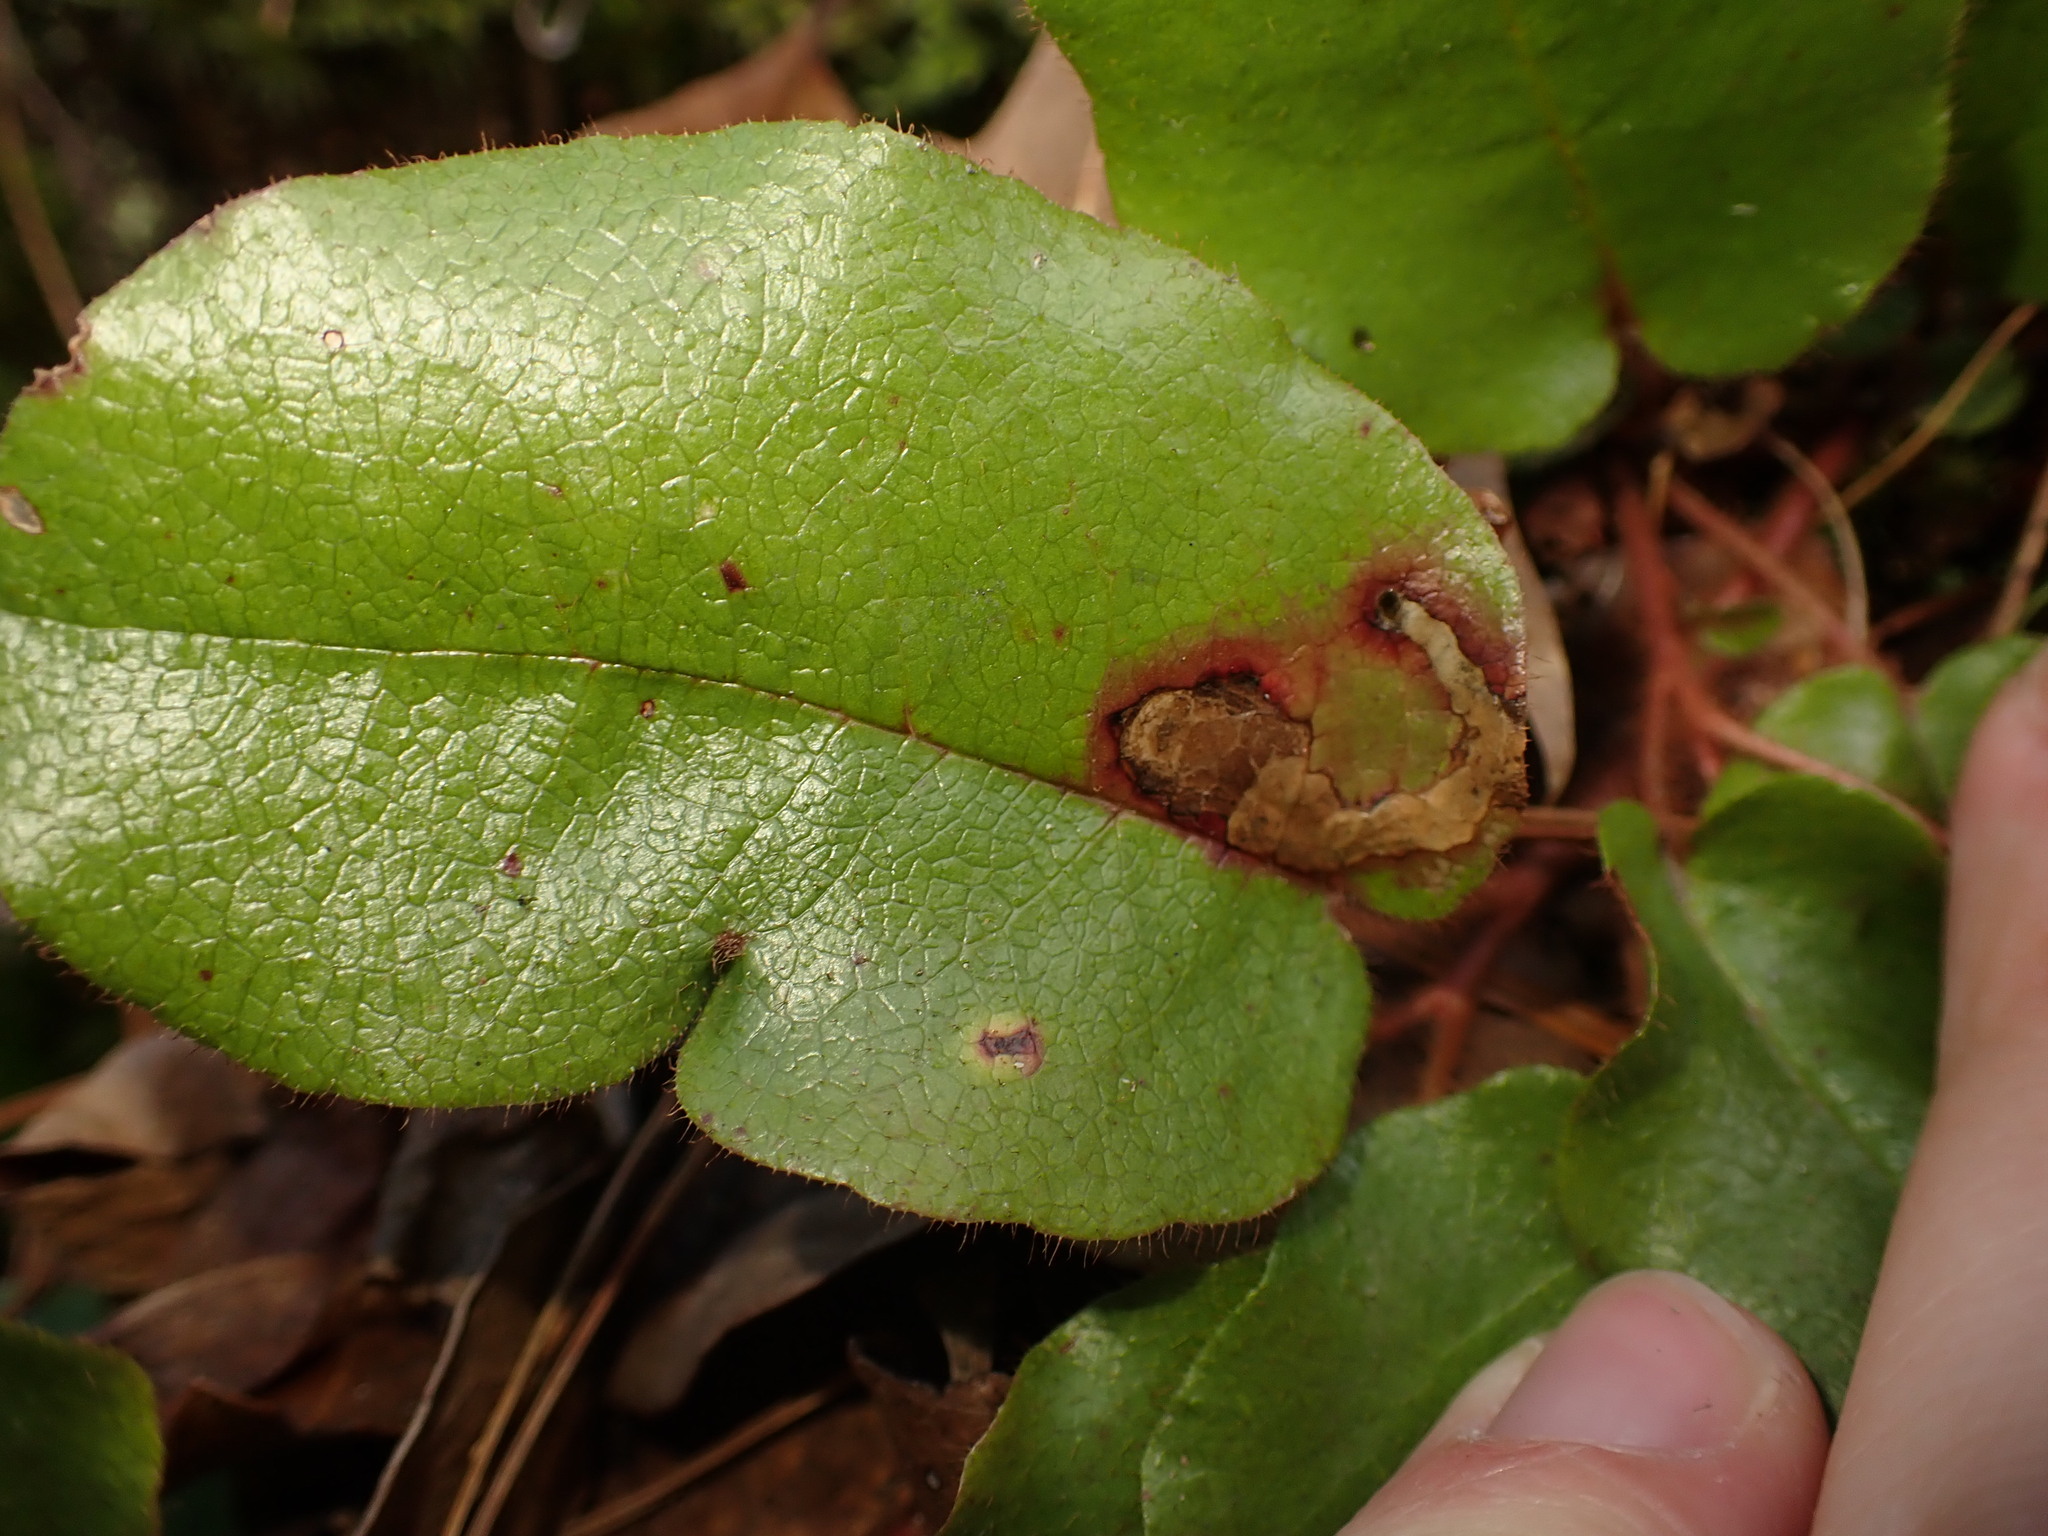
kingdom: Animalia
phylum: Arthropoda
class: Insecta
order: Coleoptera
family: Buprestidae
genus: Brachys
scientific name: Brachys
